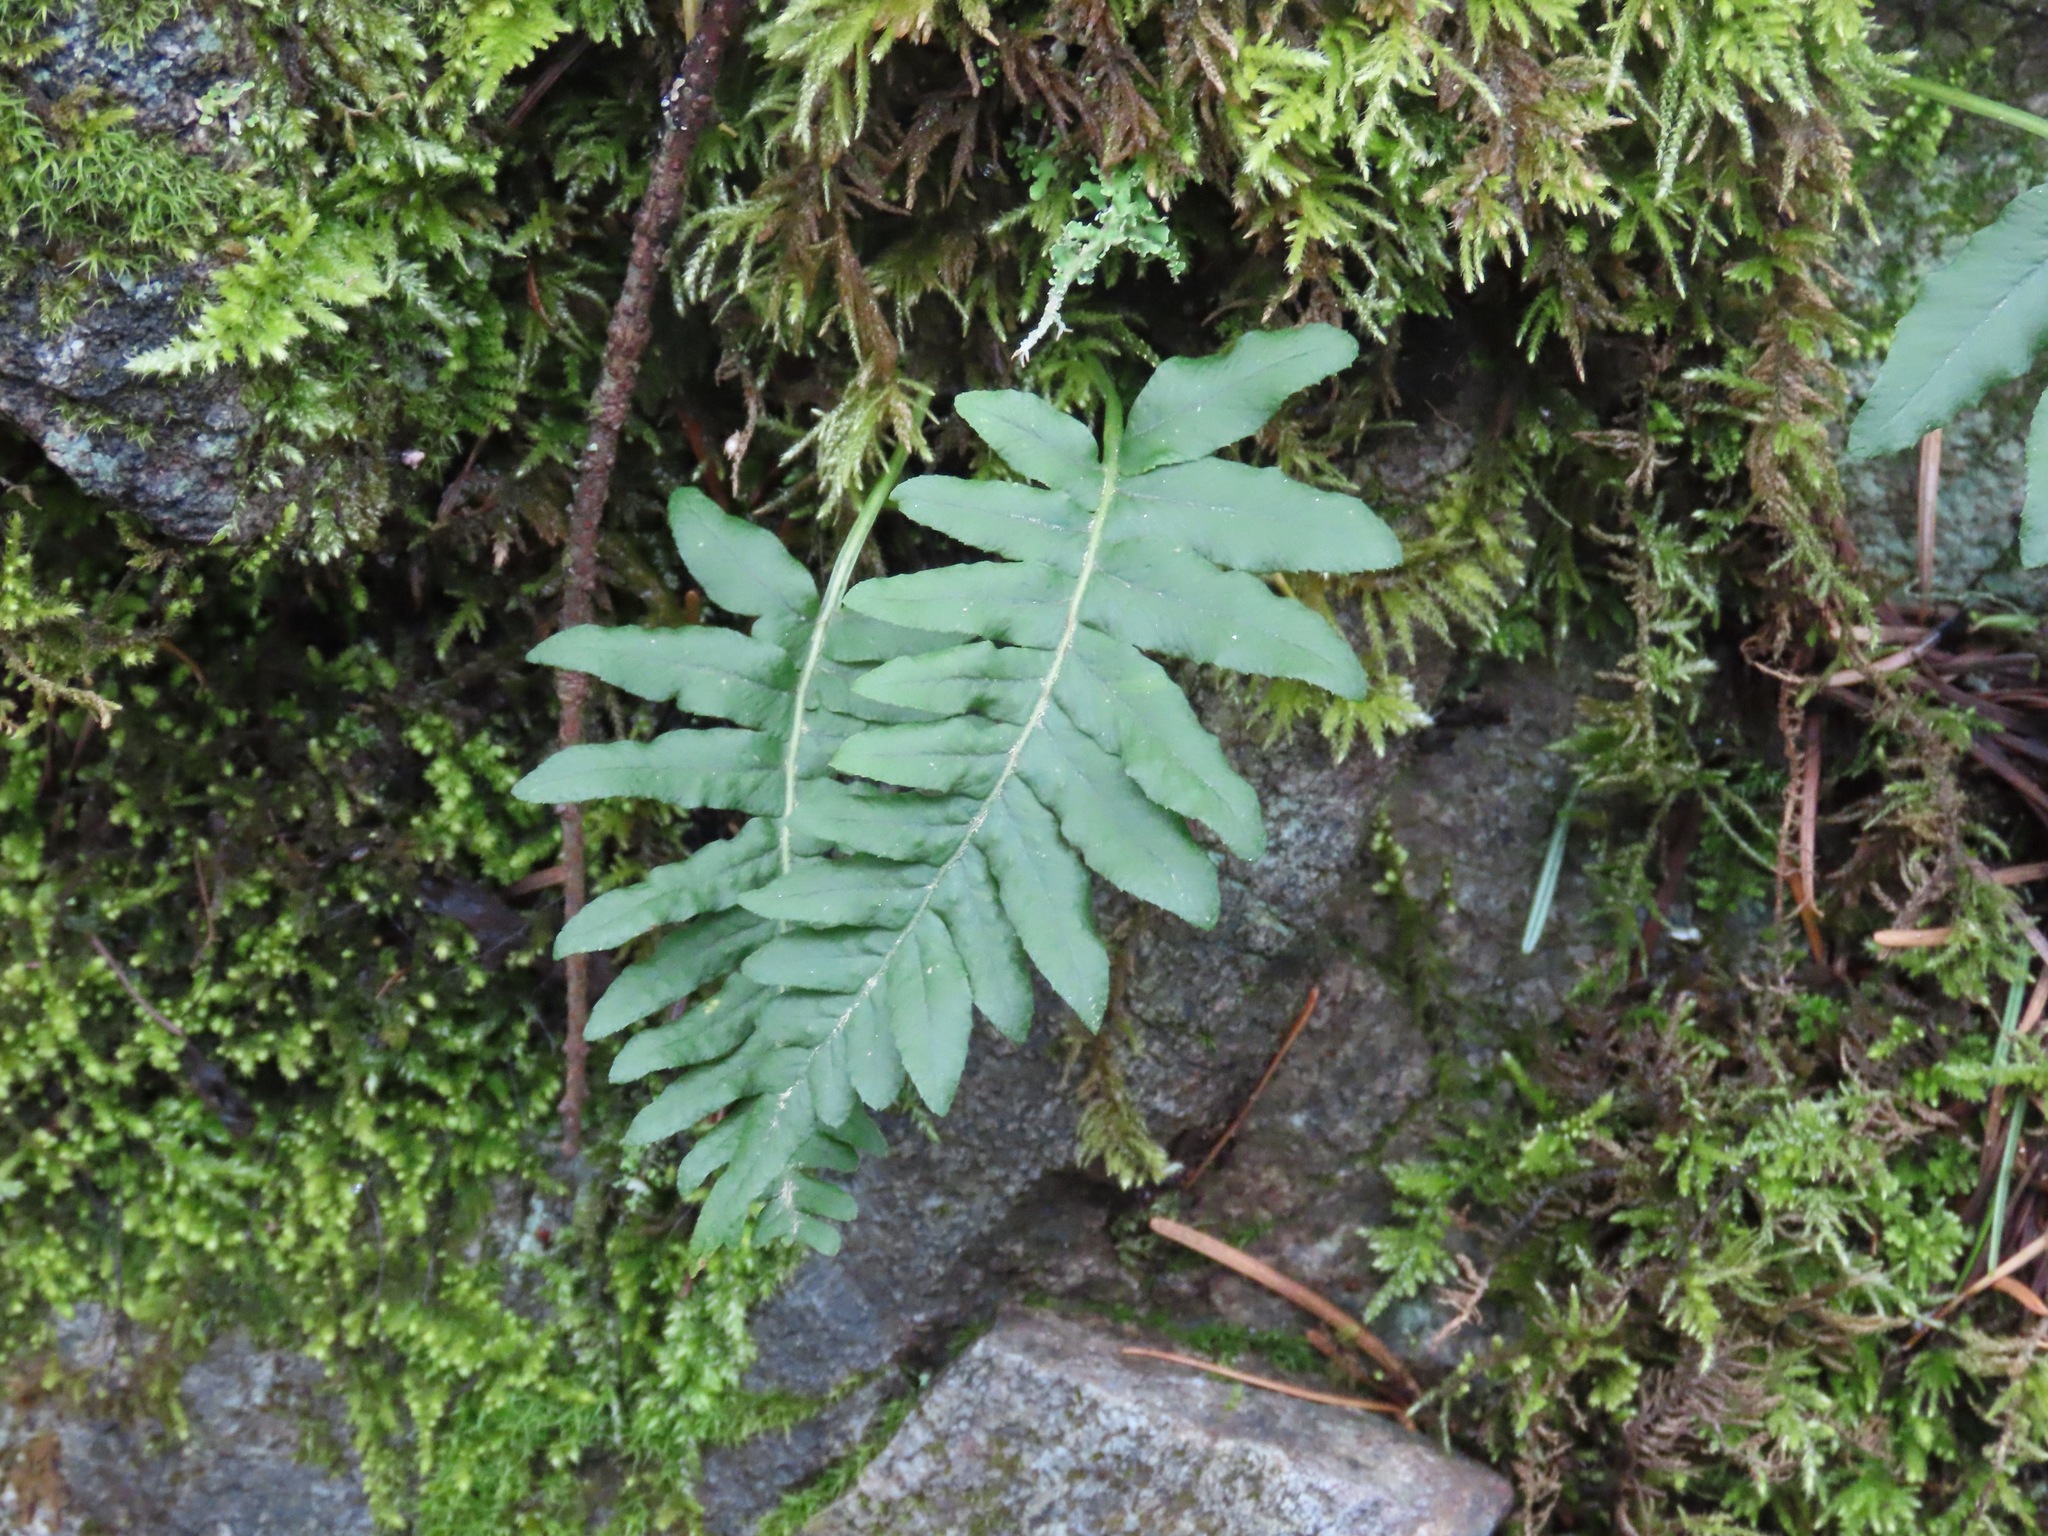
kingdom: Plantae
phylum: Tracheophyta
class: Polypodiopsida
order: Polypodiales
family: Polypodiaceae
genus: Polypodium
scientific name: Polypodium glycyrrhiza
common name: Licorice fern
